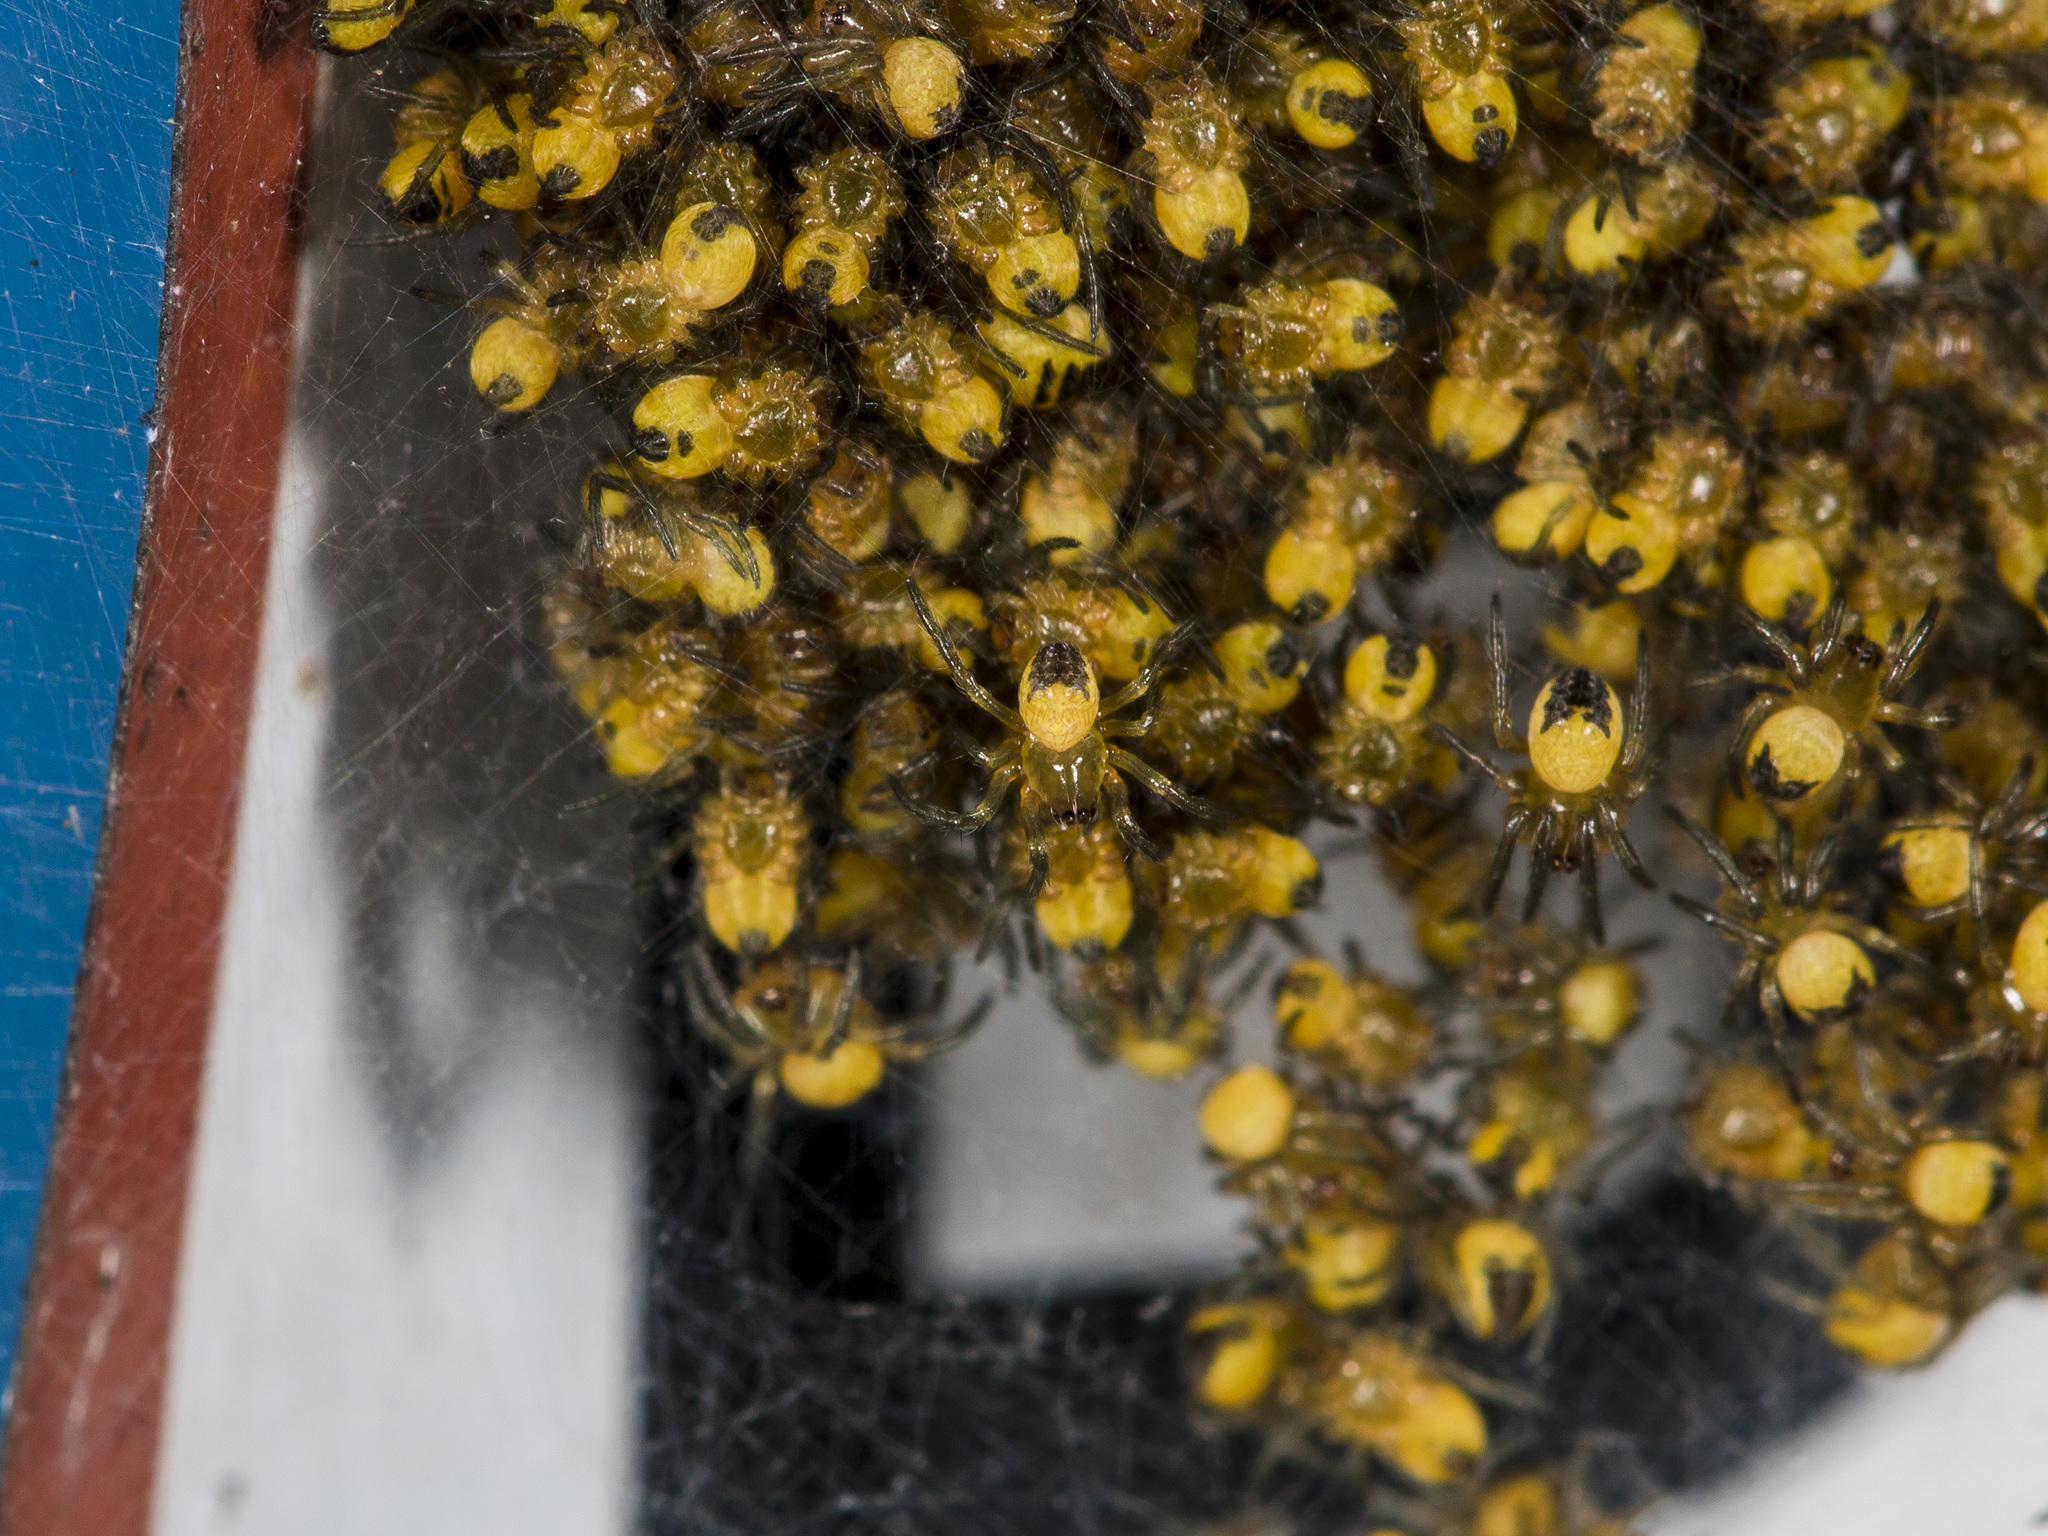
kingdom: Animalia
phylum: Arthropoda
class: Arachnida
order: Araneae
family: Araneidae
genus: Araneus
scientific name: Araneus diadematus
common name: Cross orbweaver
